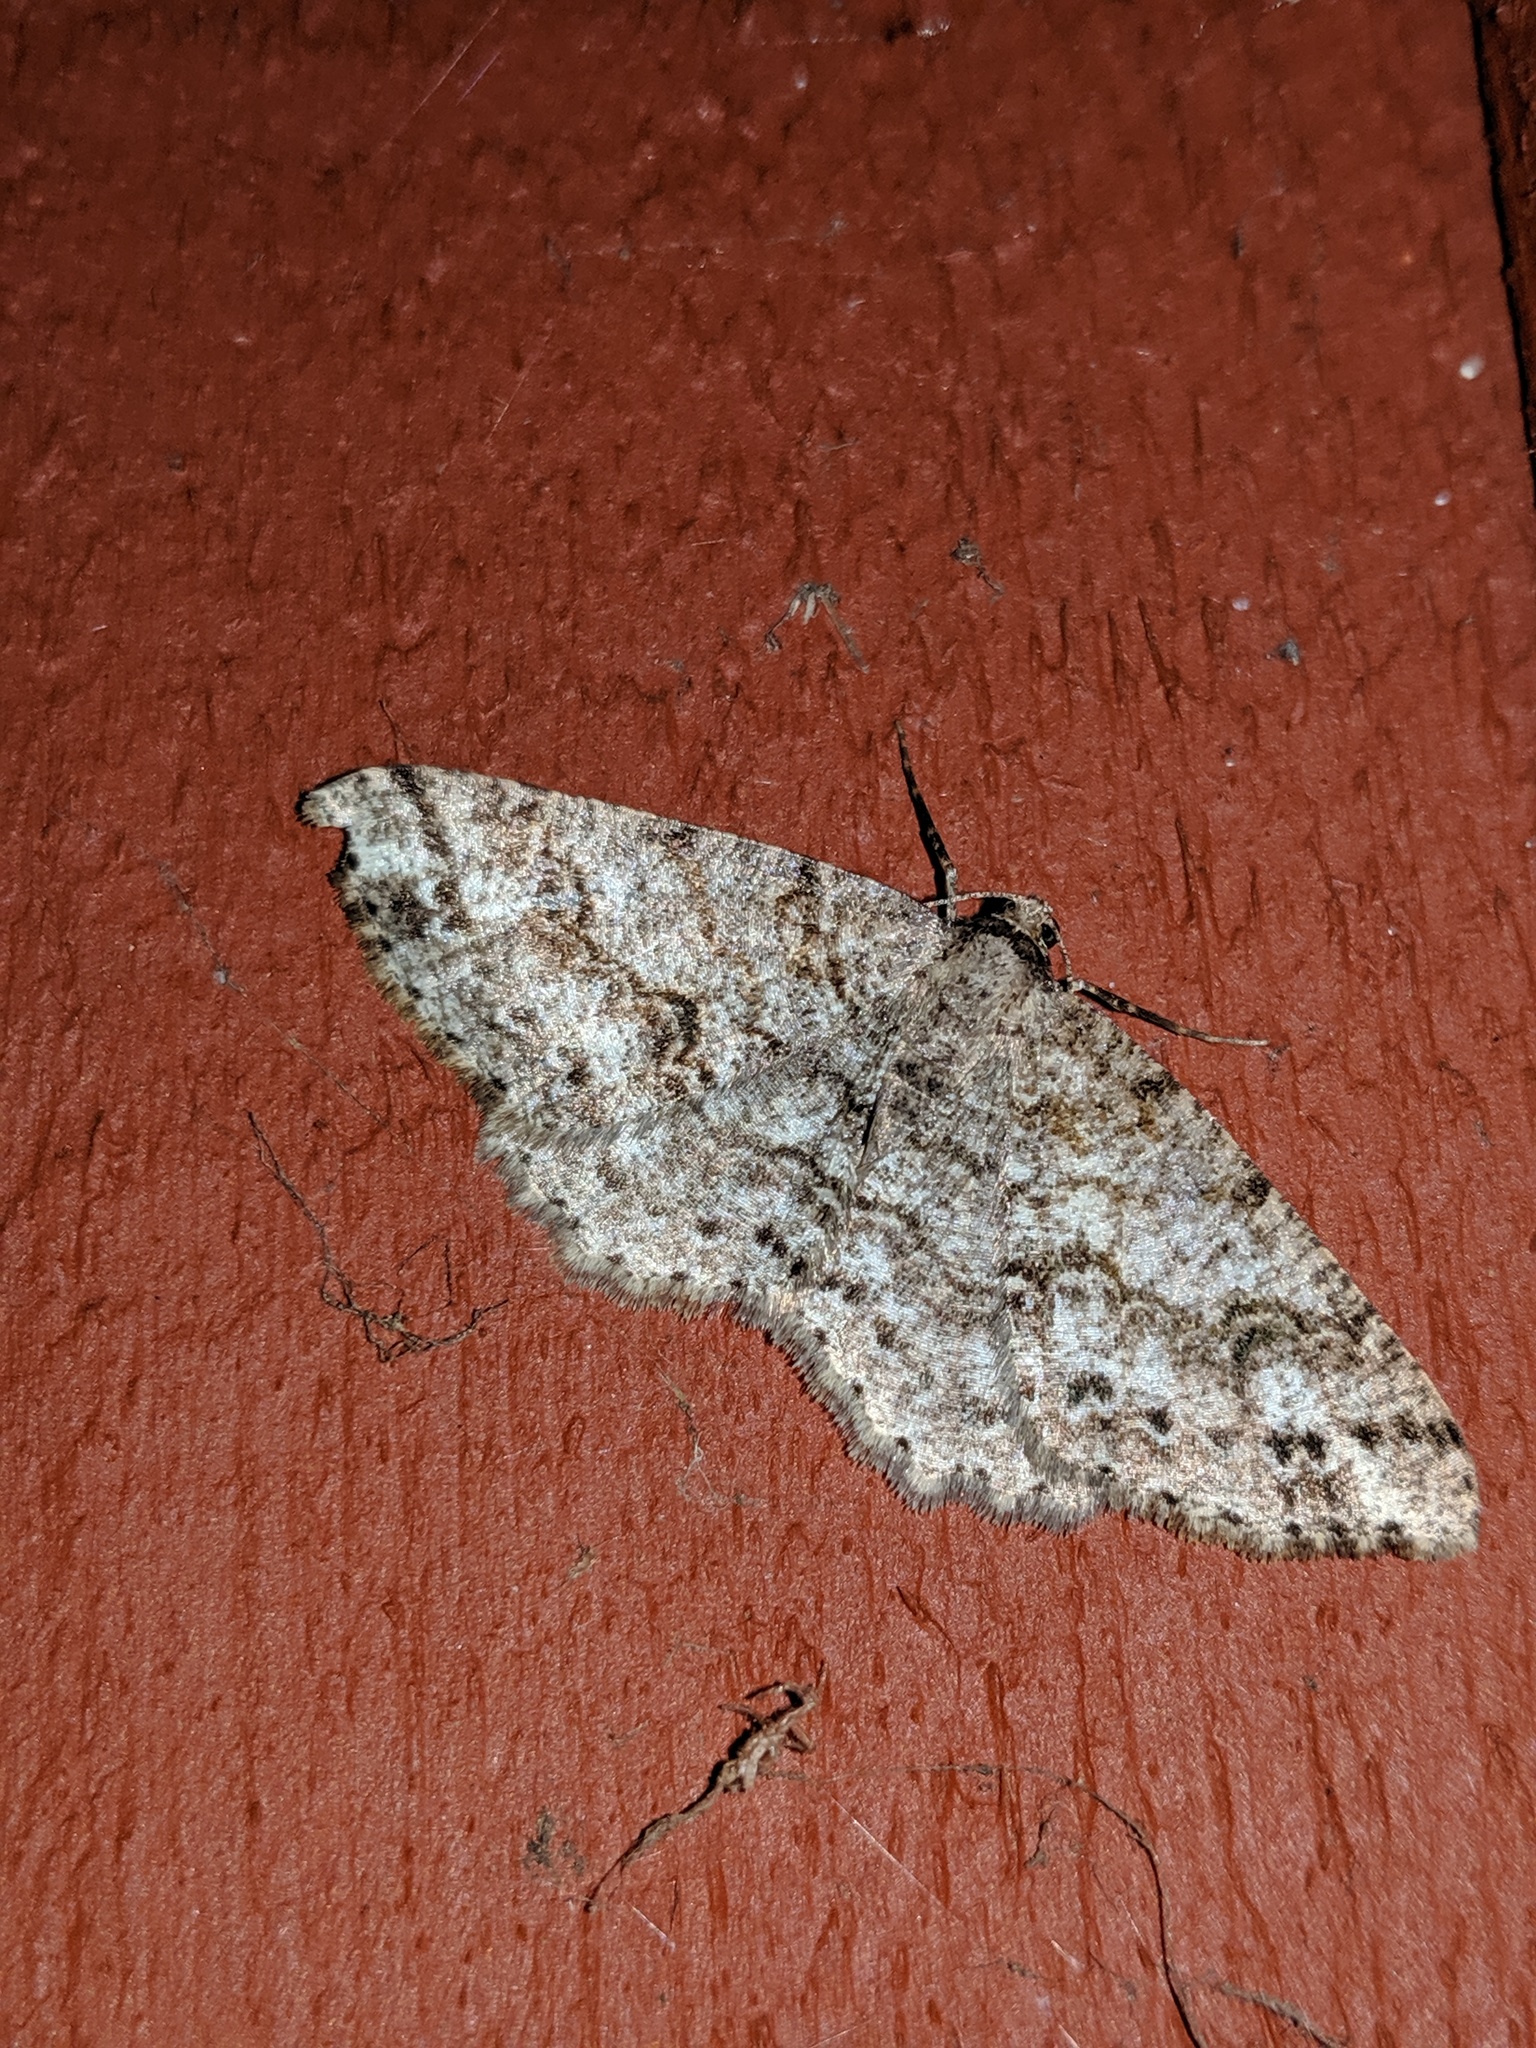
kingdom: Animalia
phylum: Arthropoda
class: Insecta
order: Lepidoptera
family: Geometridae
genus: Melanolophia
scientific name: Melanolophia imitata
